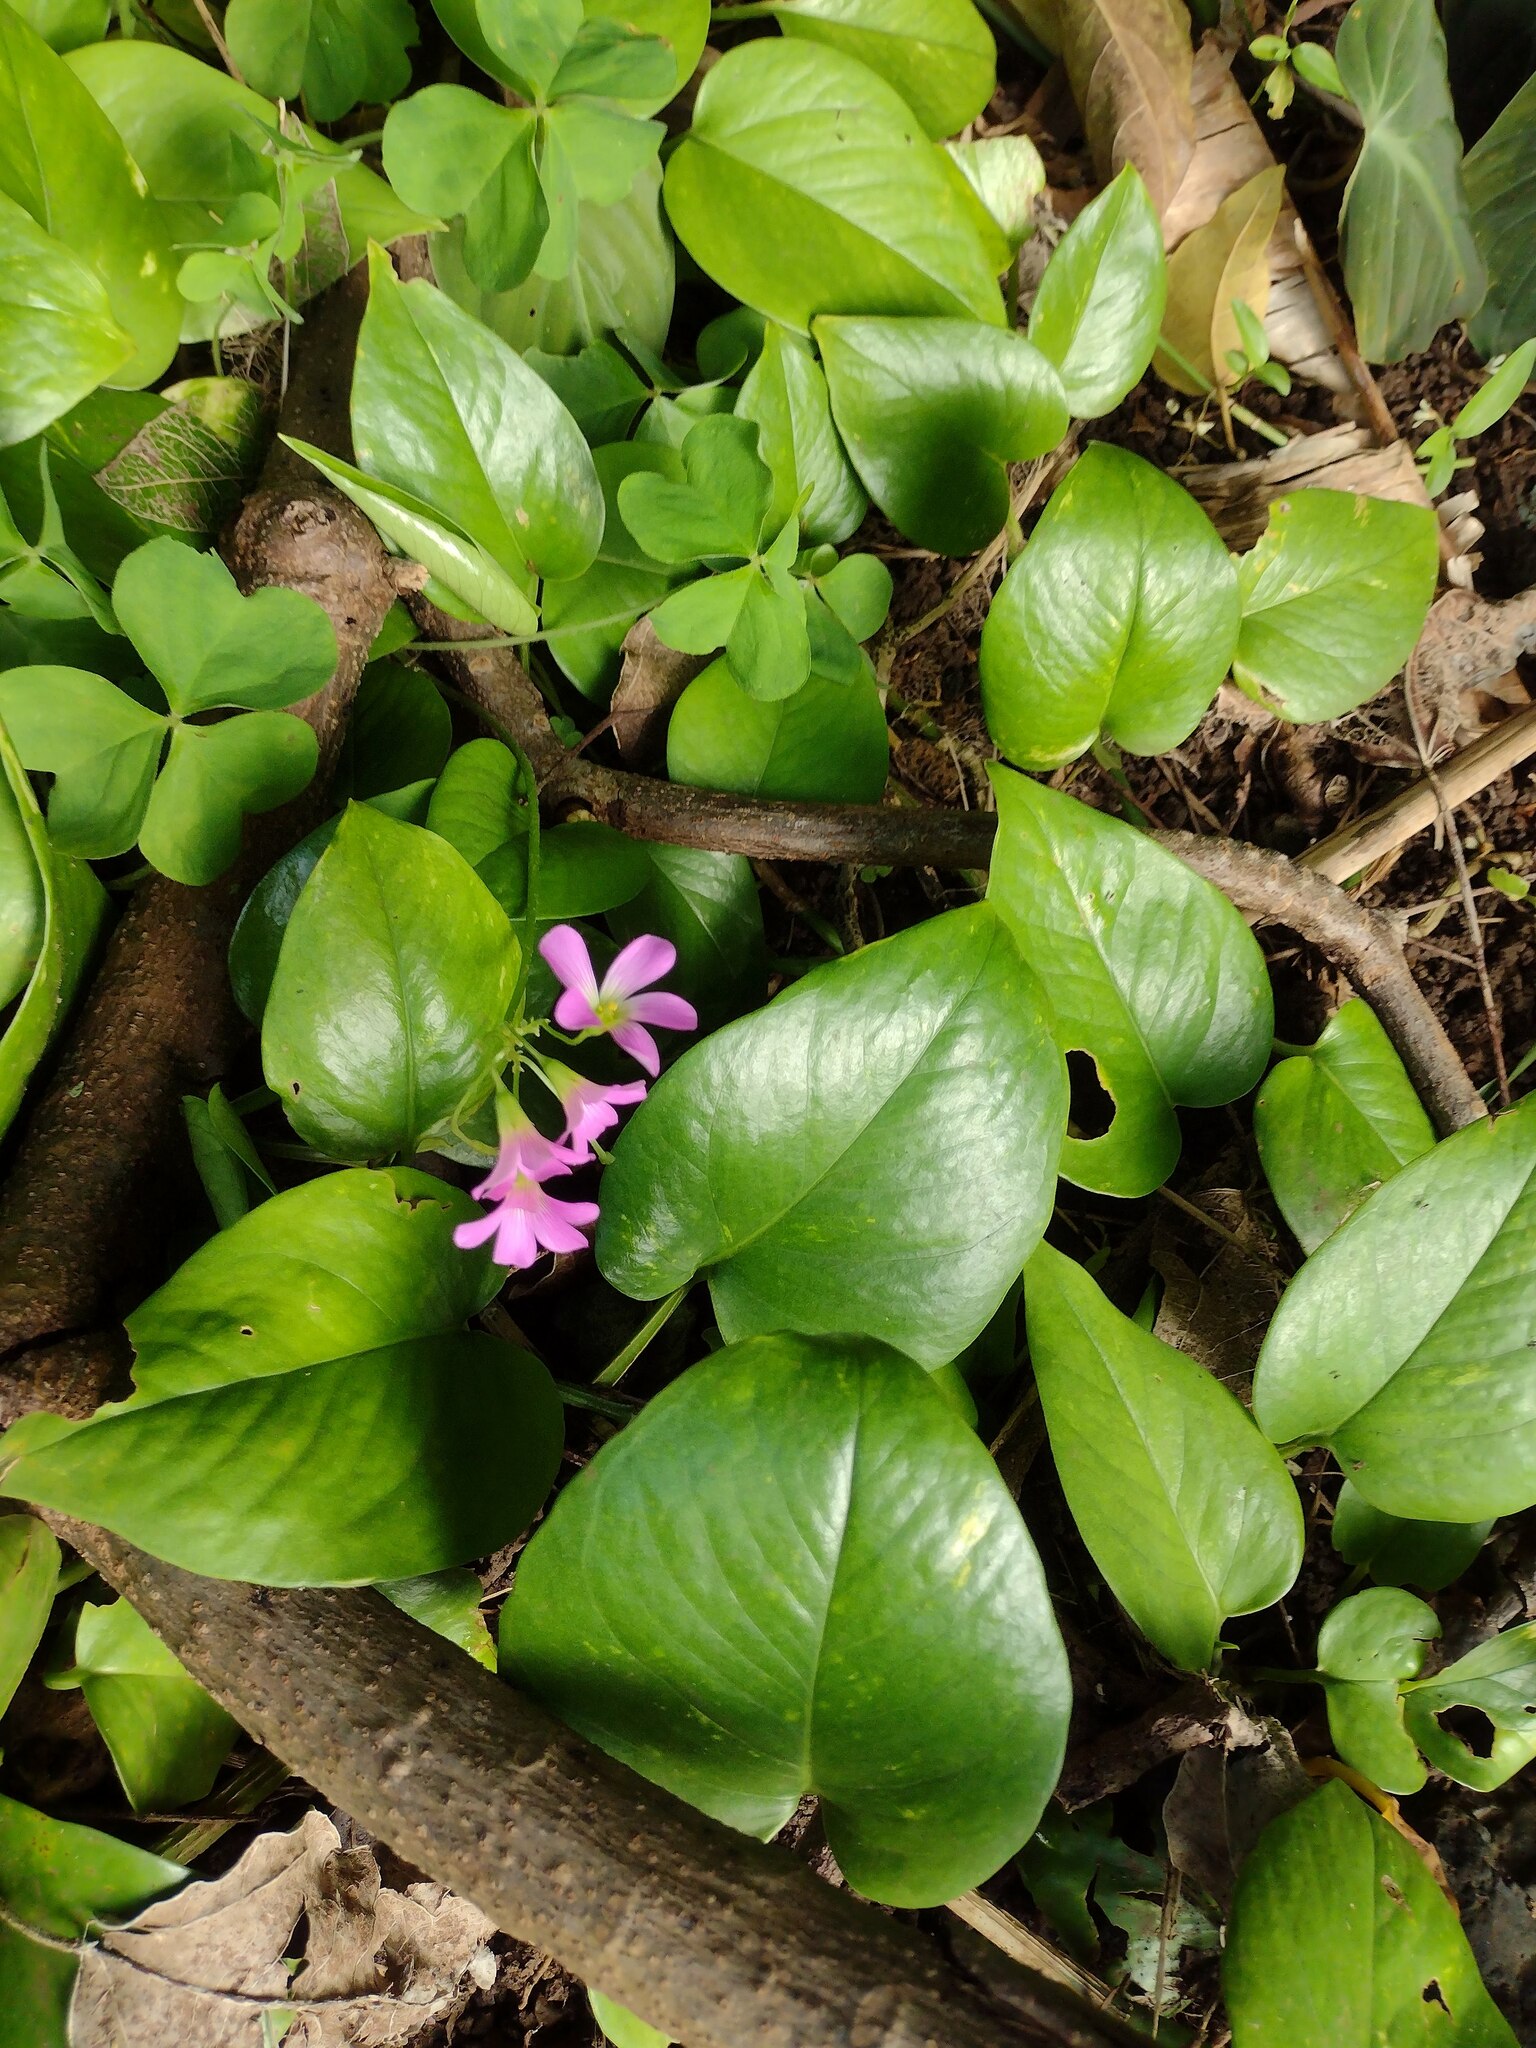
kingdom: Plantae
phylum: Tracheophyta
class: Magnoliopsida
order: Oxalidales
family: Oxalidaceae
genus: Oxalis
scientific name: Oxalis debilis
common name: Large-flowered pink-sorrel
